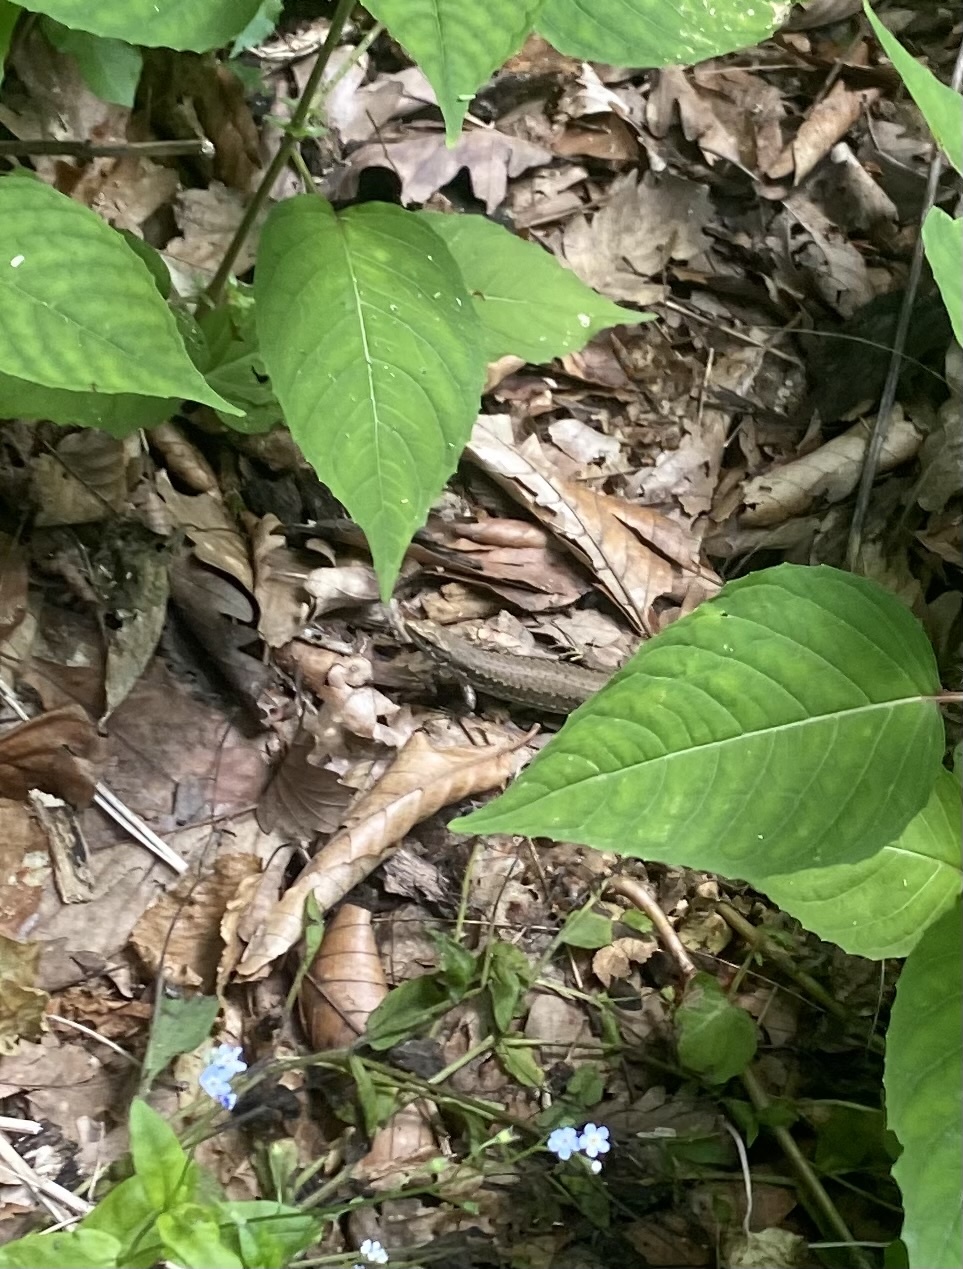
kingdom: Animalia
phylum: Chordata
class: Squamata
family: Lacertidae
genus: Darevskia
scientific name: Darevskia brauneri
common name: Brauner's rock lizard
